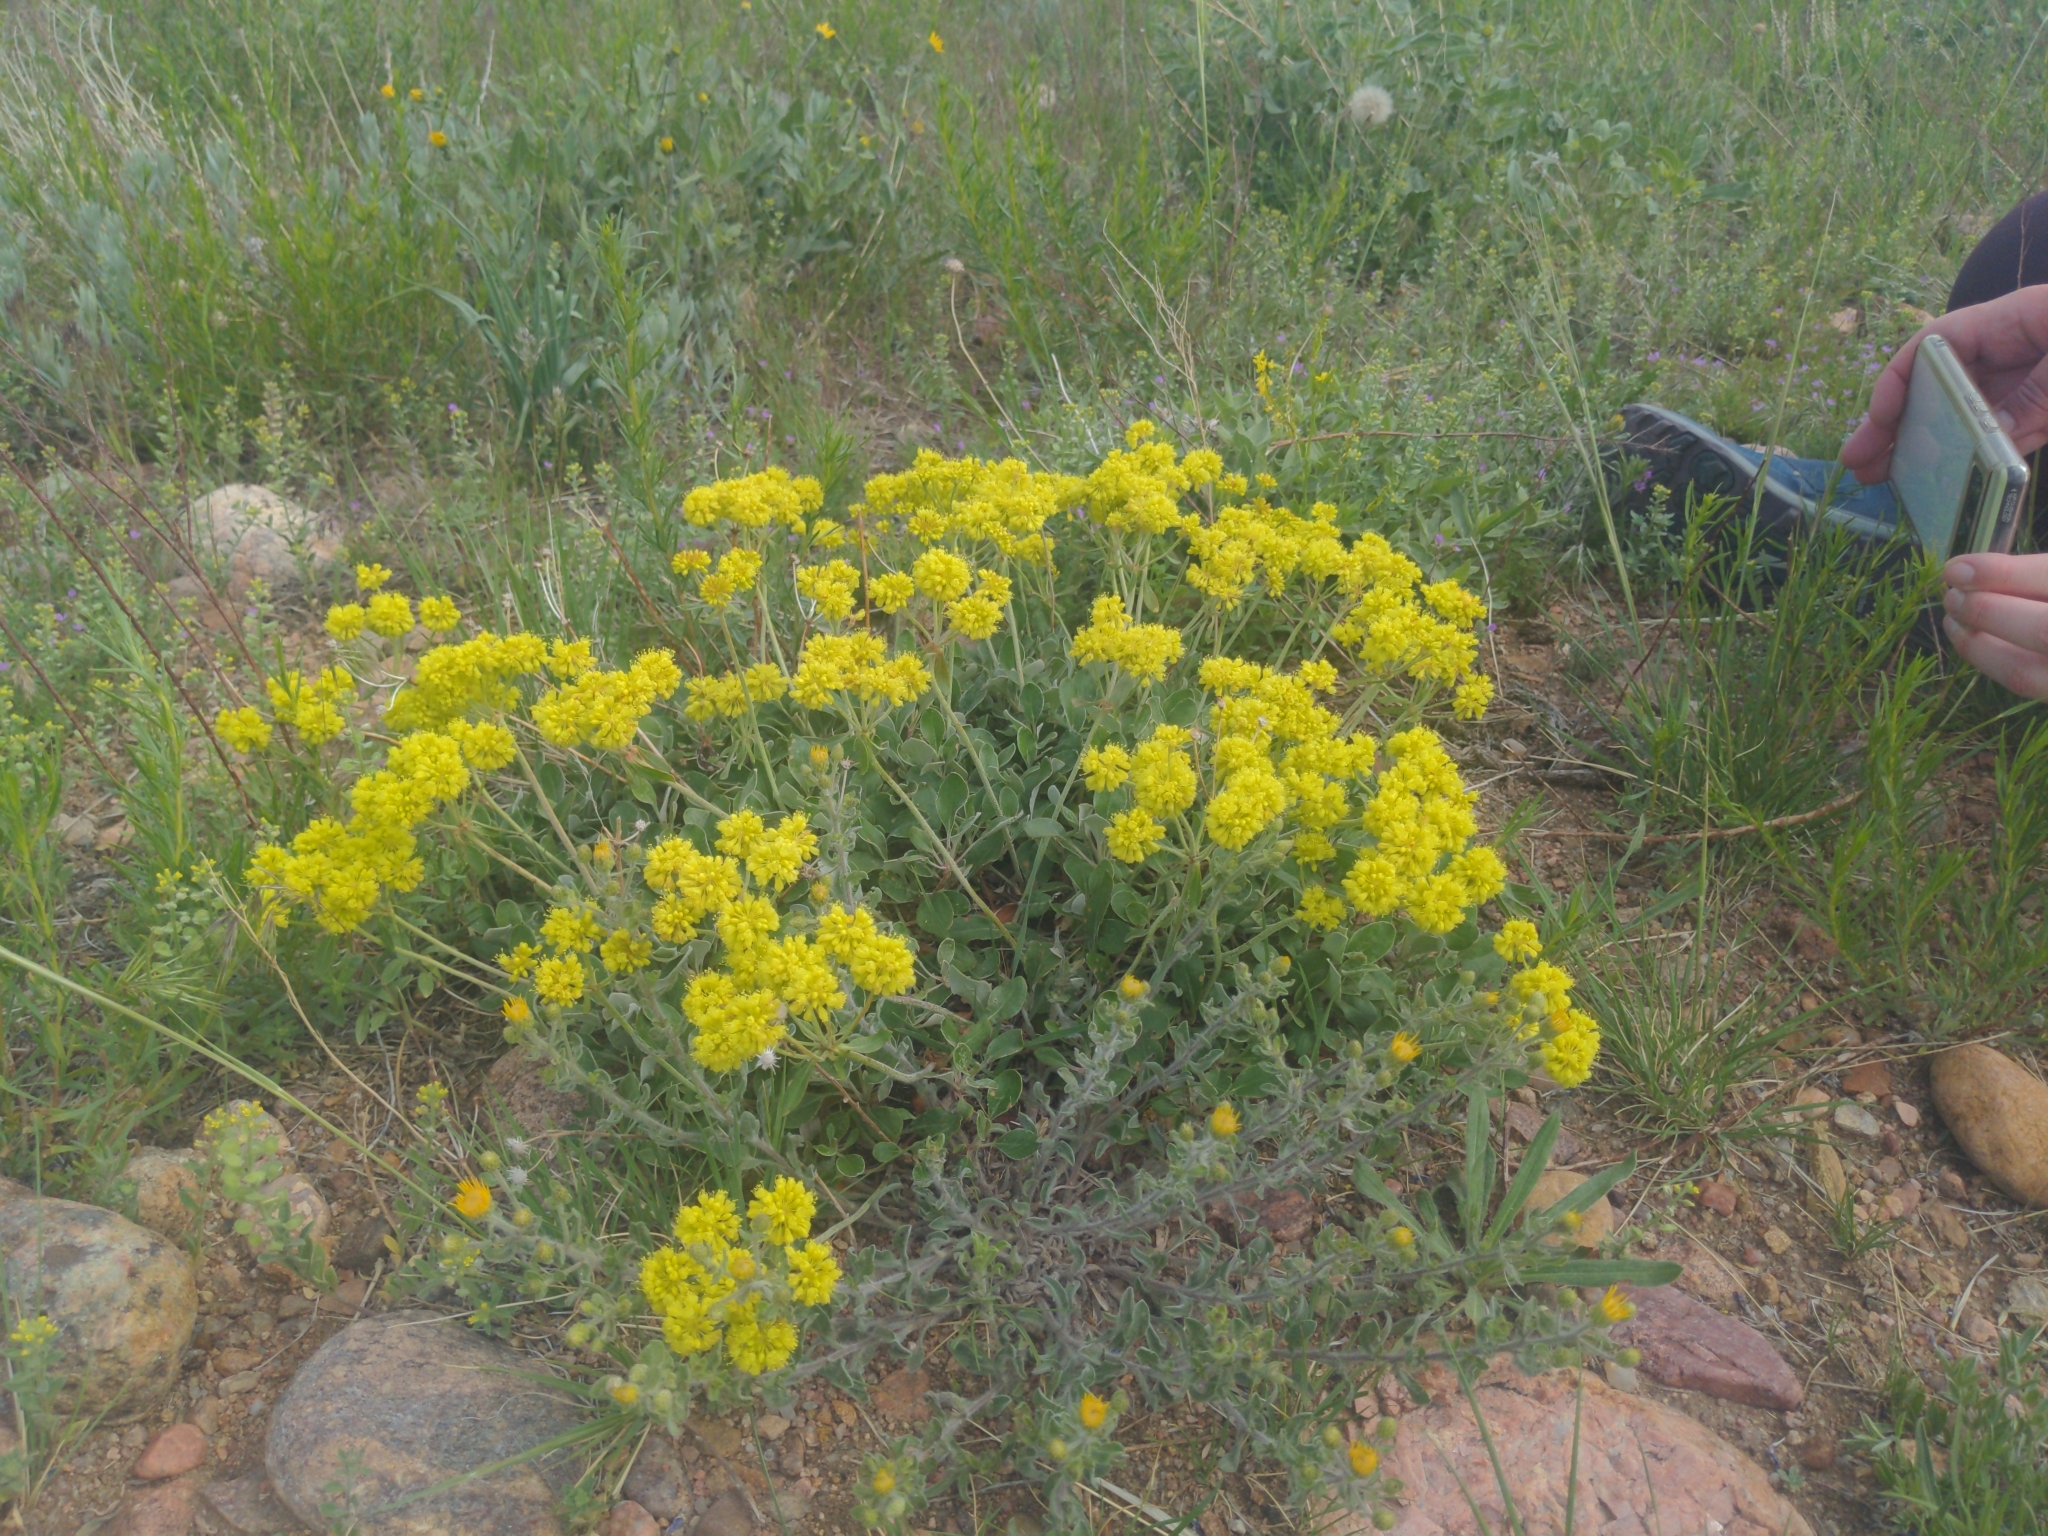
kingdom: Plantae
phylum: Tracheophyta
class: Magnoliopsida
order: Caryophyllales
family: Polygonaceae
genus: Eriogonum
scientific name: Eriogonum umbellatum
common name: Sulfur-buckwheat
